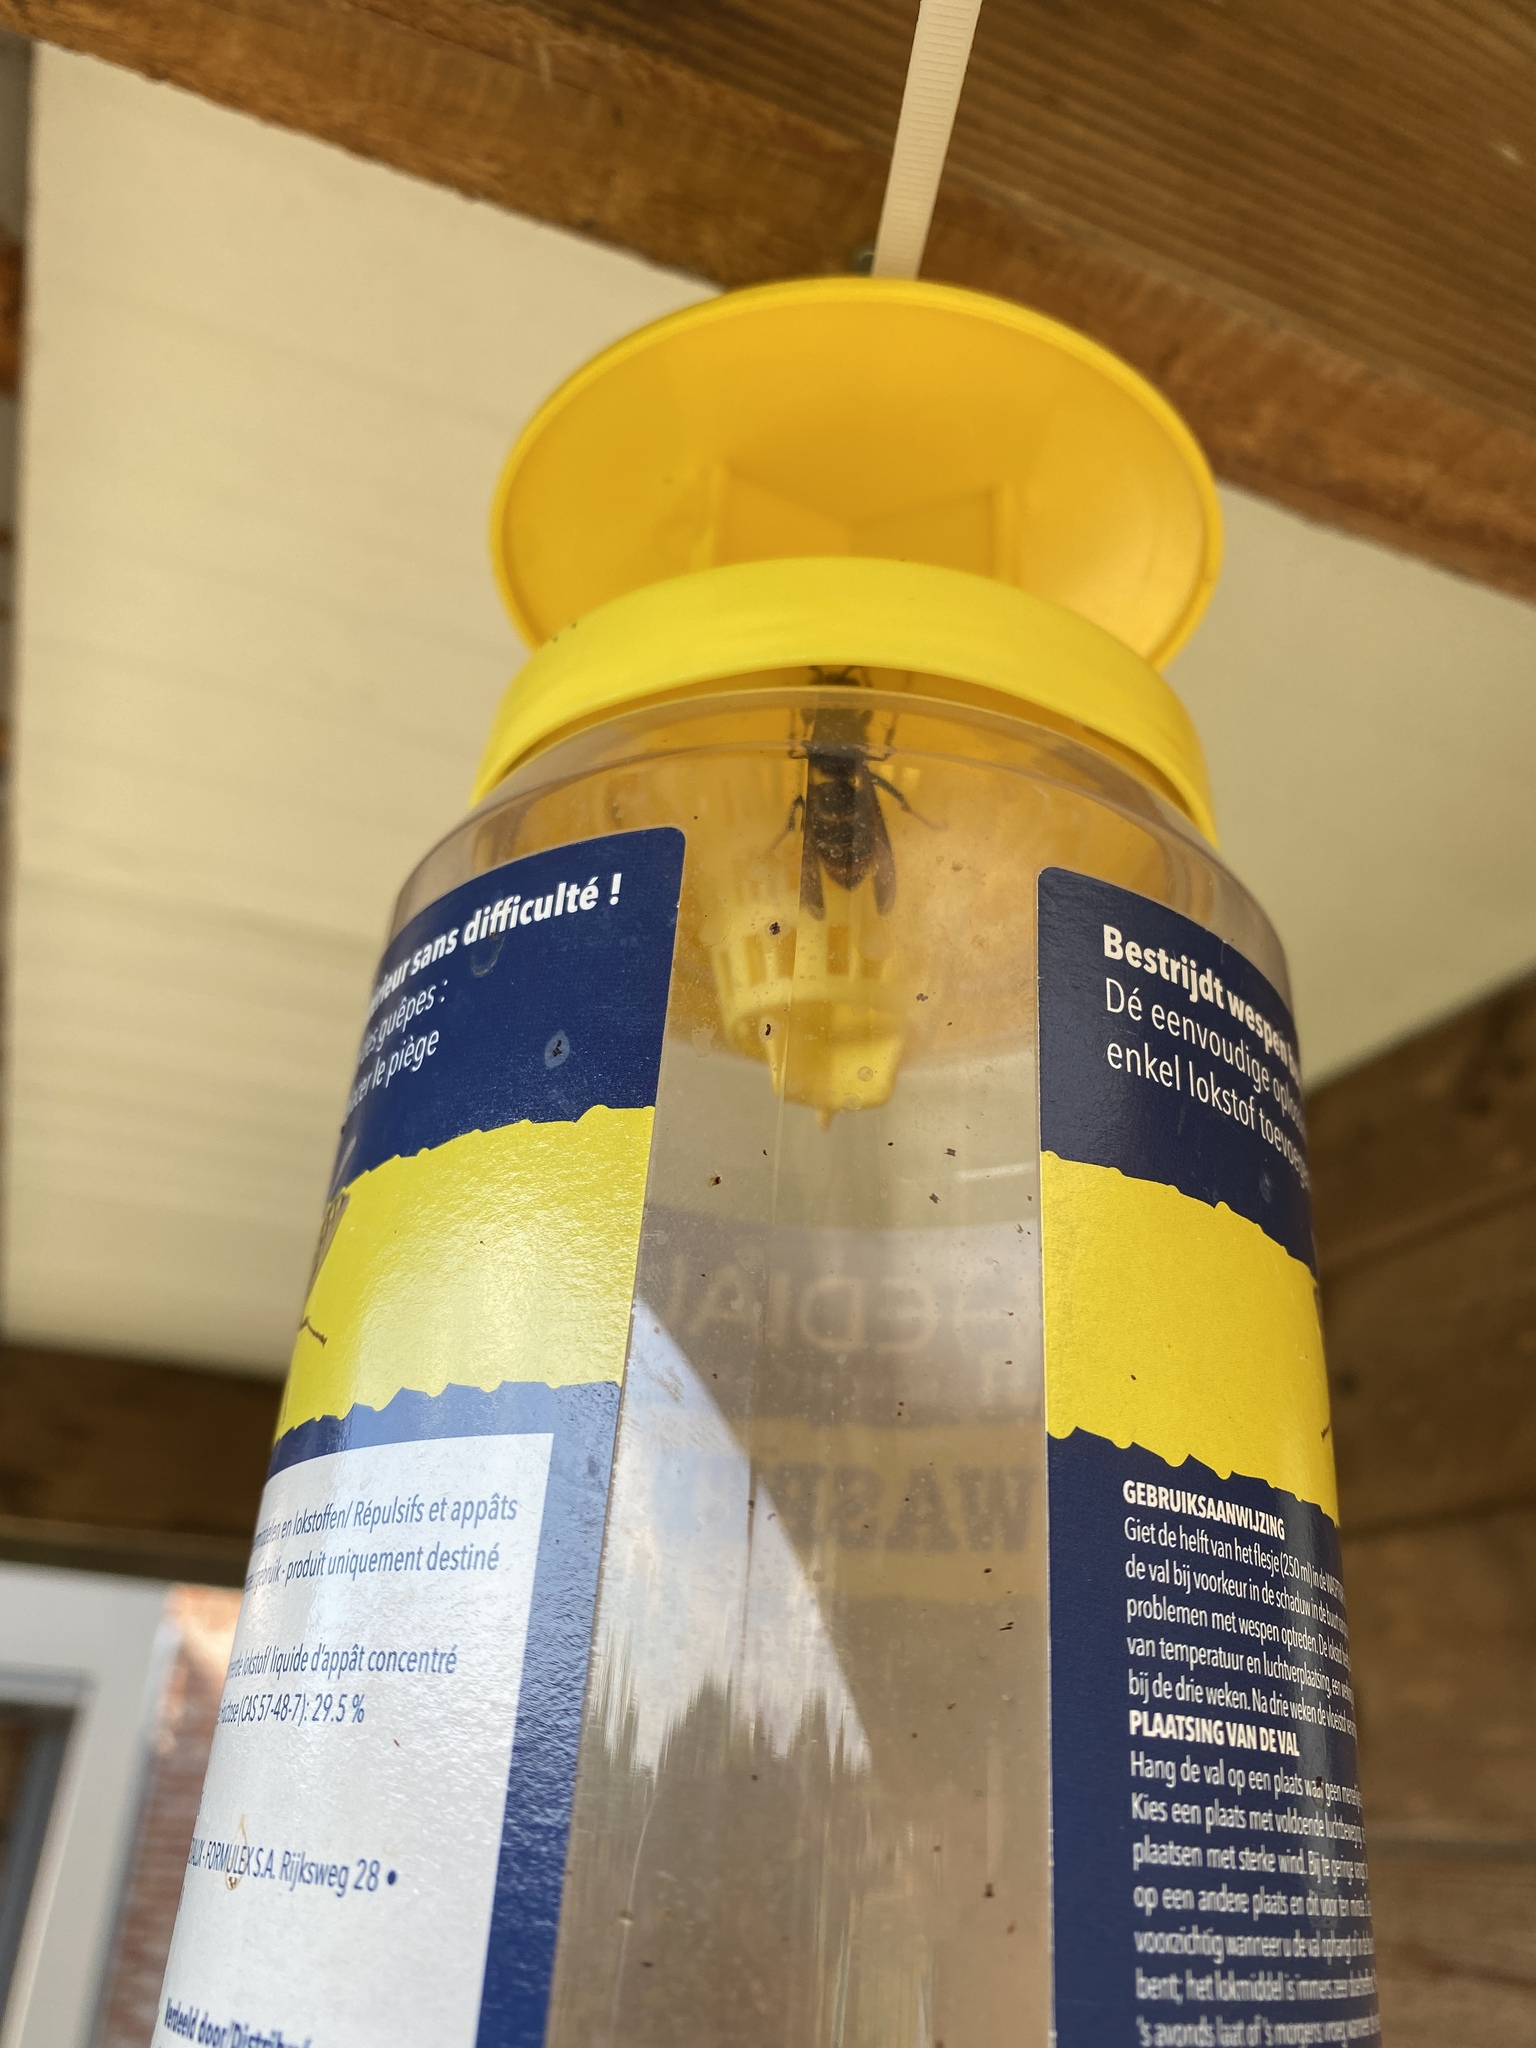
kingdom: Animalia
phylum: Arthropoda
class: Insecta
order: Hymenoptera
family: Vespidae
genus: Vespa
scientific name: Vespa velutina
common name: Asian hornet
